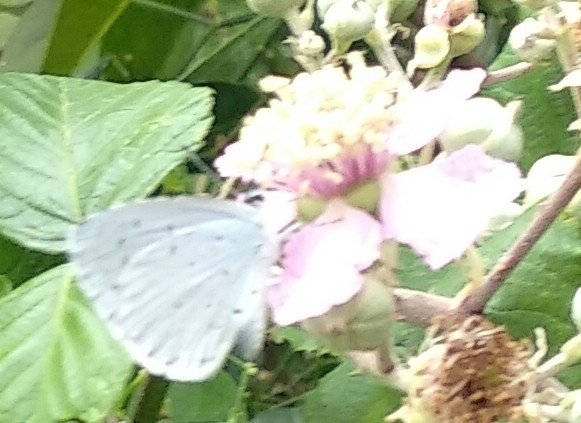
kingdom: Animalia
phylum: Arthropoda
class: Insecta
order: Lepidoptera
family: Lycaenidae
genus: Celastrina
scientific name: Celastrina argiolus
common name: Holly blue
